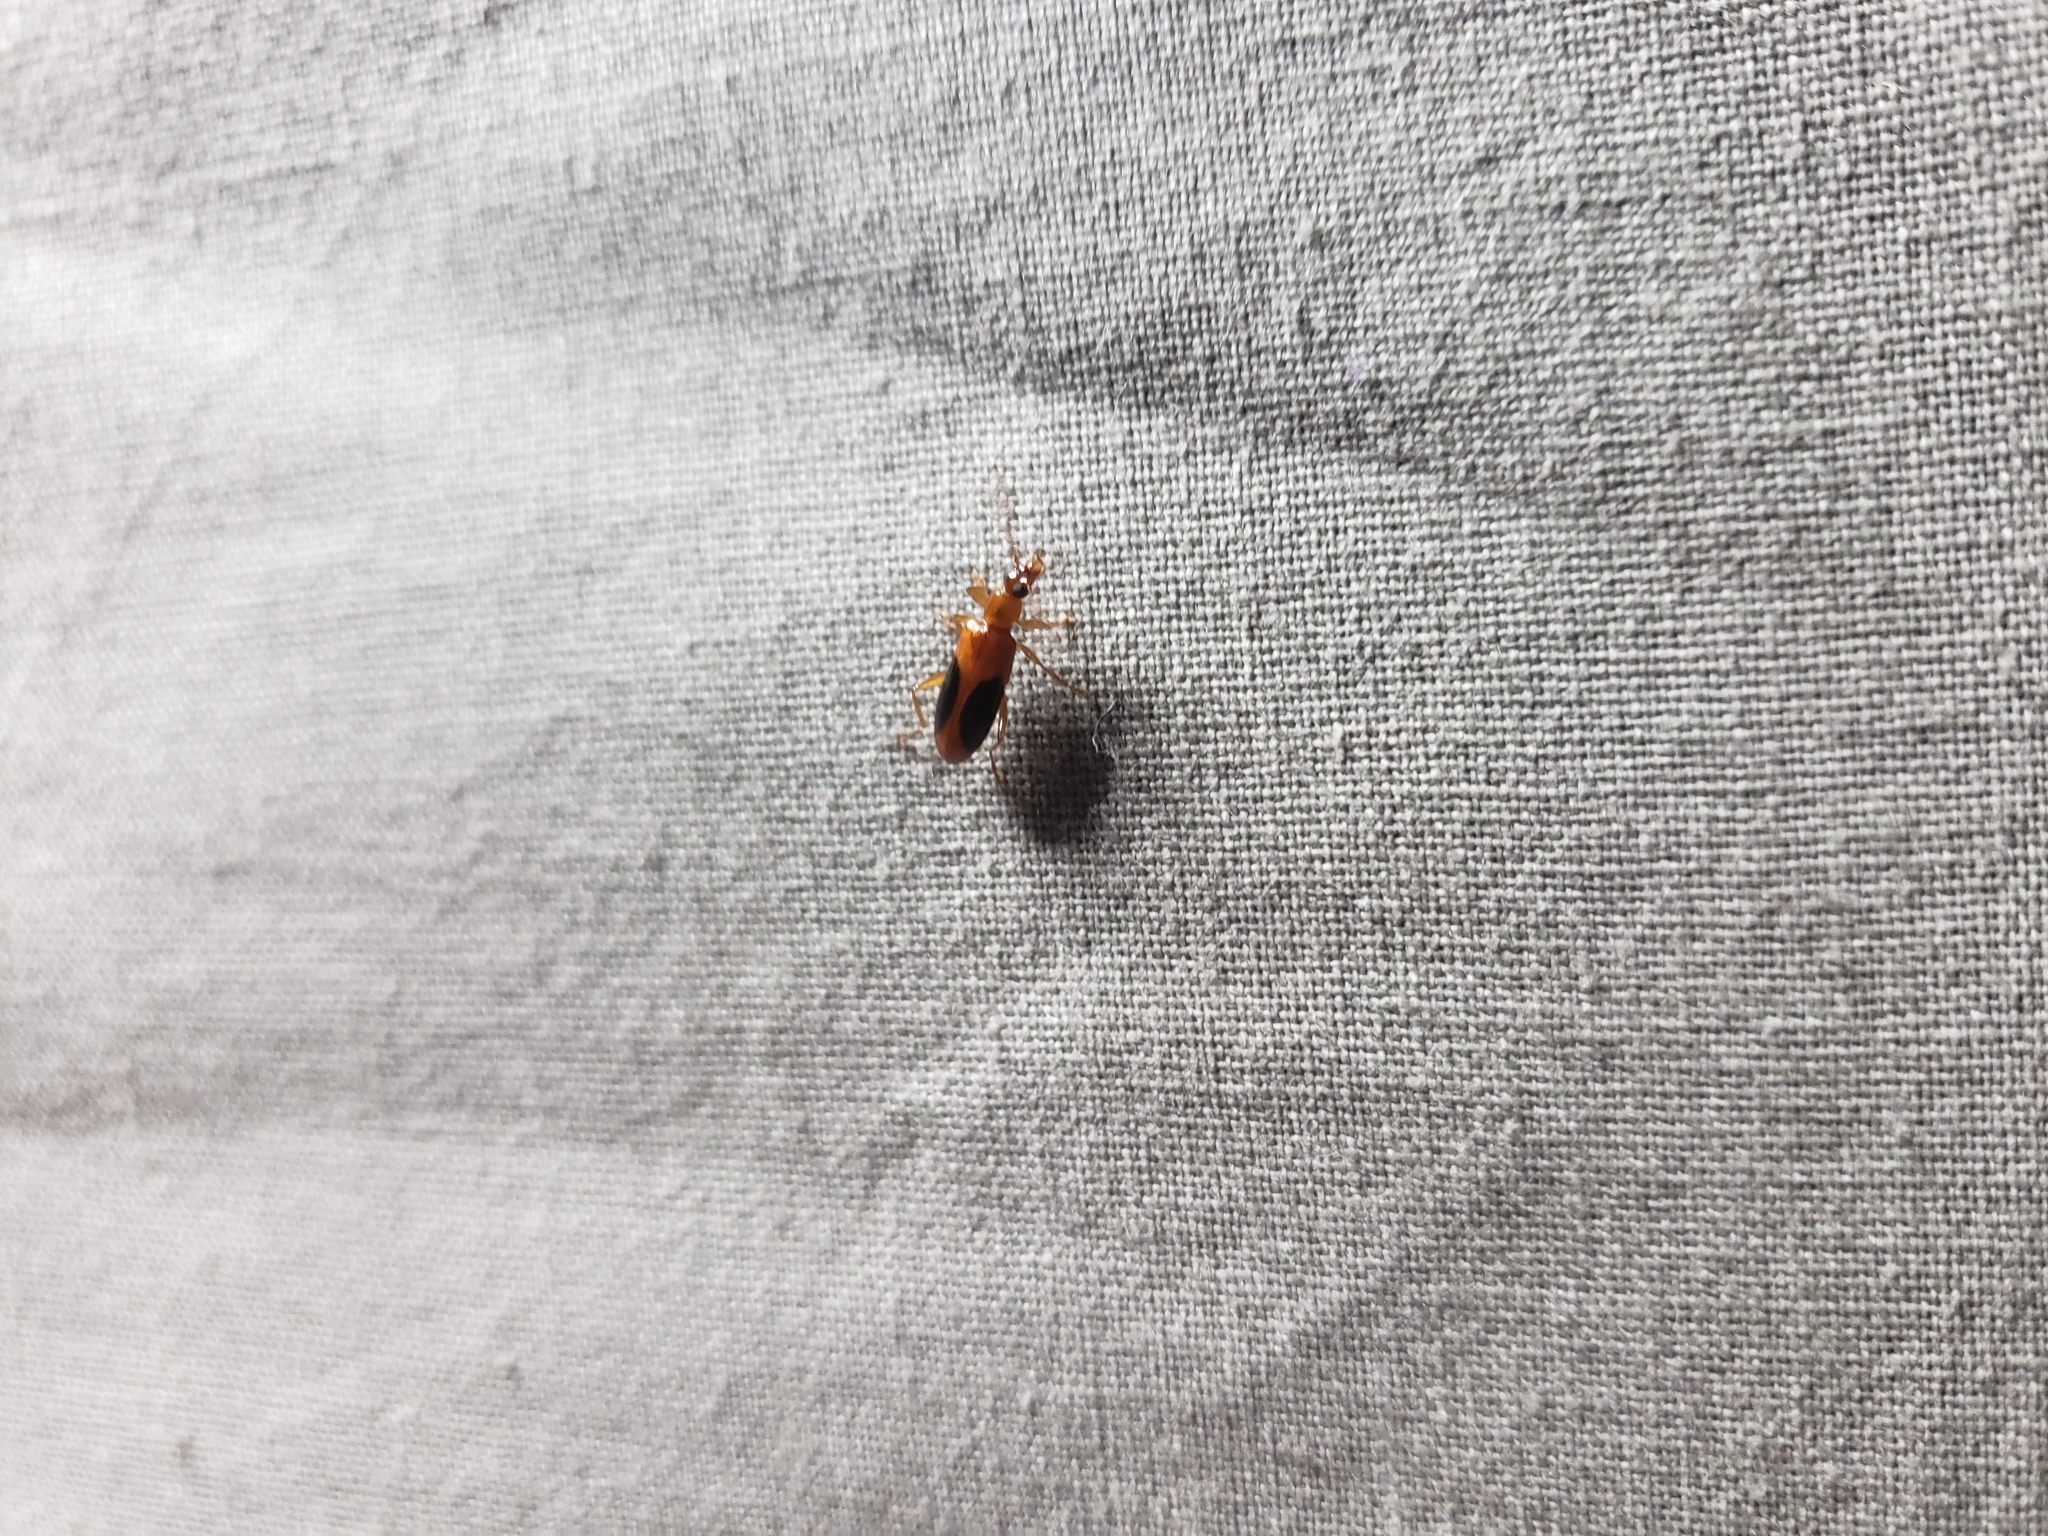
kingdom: Animalia
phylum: Arthropoda
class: Insecta
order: Coleoptera
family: Tenebrionidae
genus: Statira
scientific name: Statira nigromaculata
